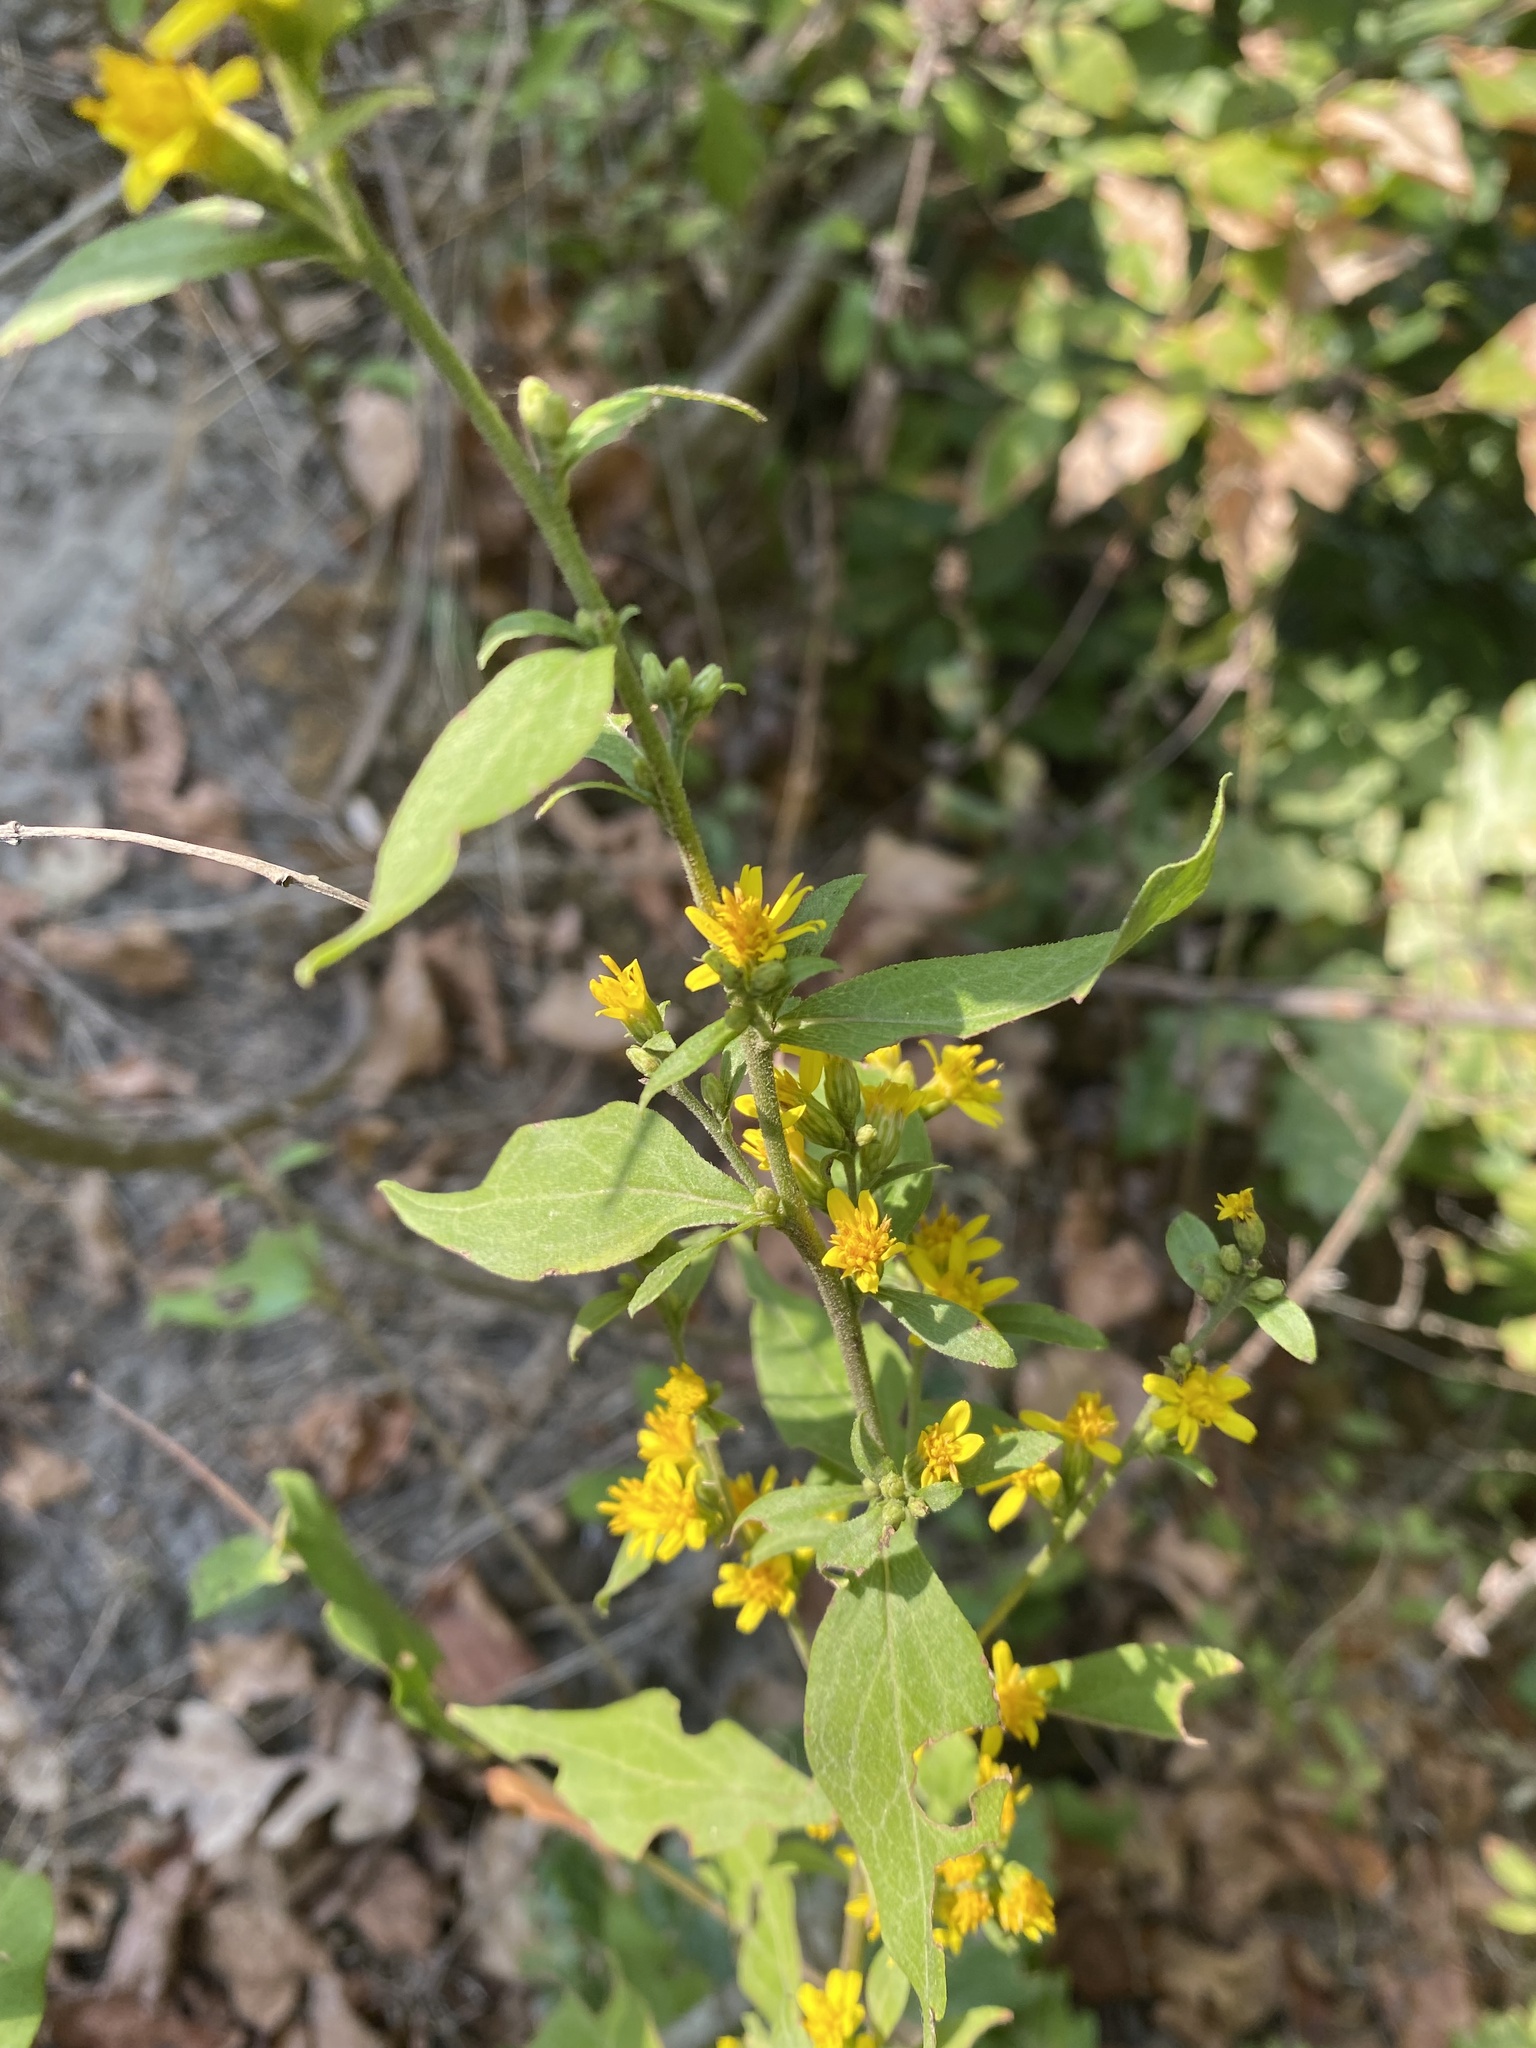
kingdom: Plantae
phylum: Tracheophyta
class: Magnoliopsida
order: Asterales
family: Asteraceae
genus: Solidago
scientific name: Solidago virgaurea
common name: Goldenrod
